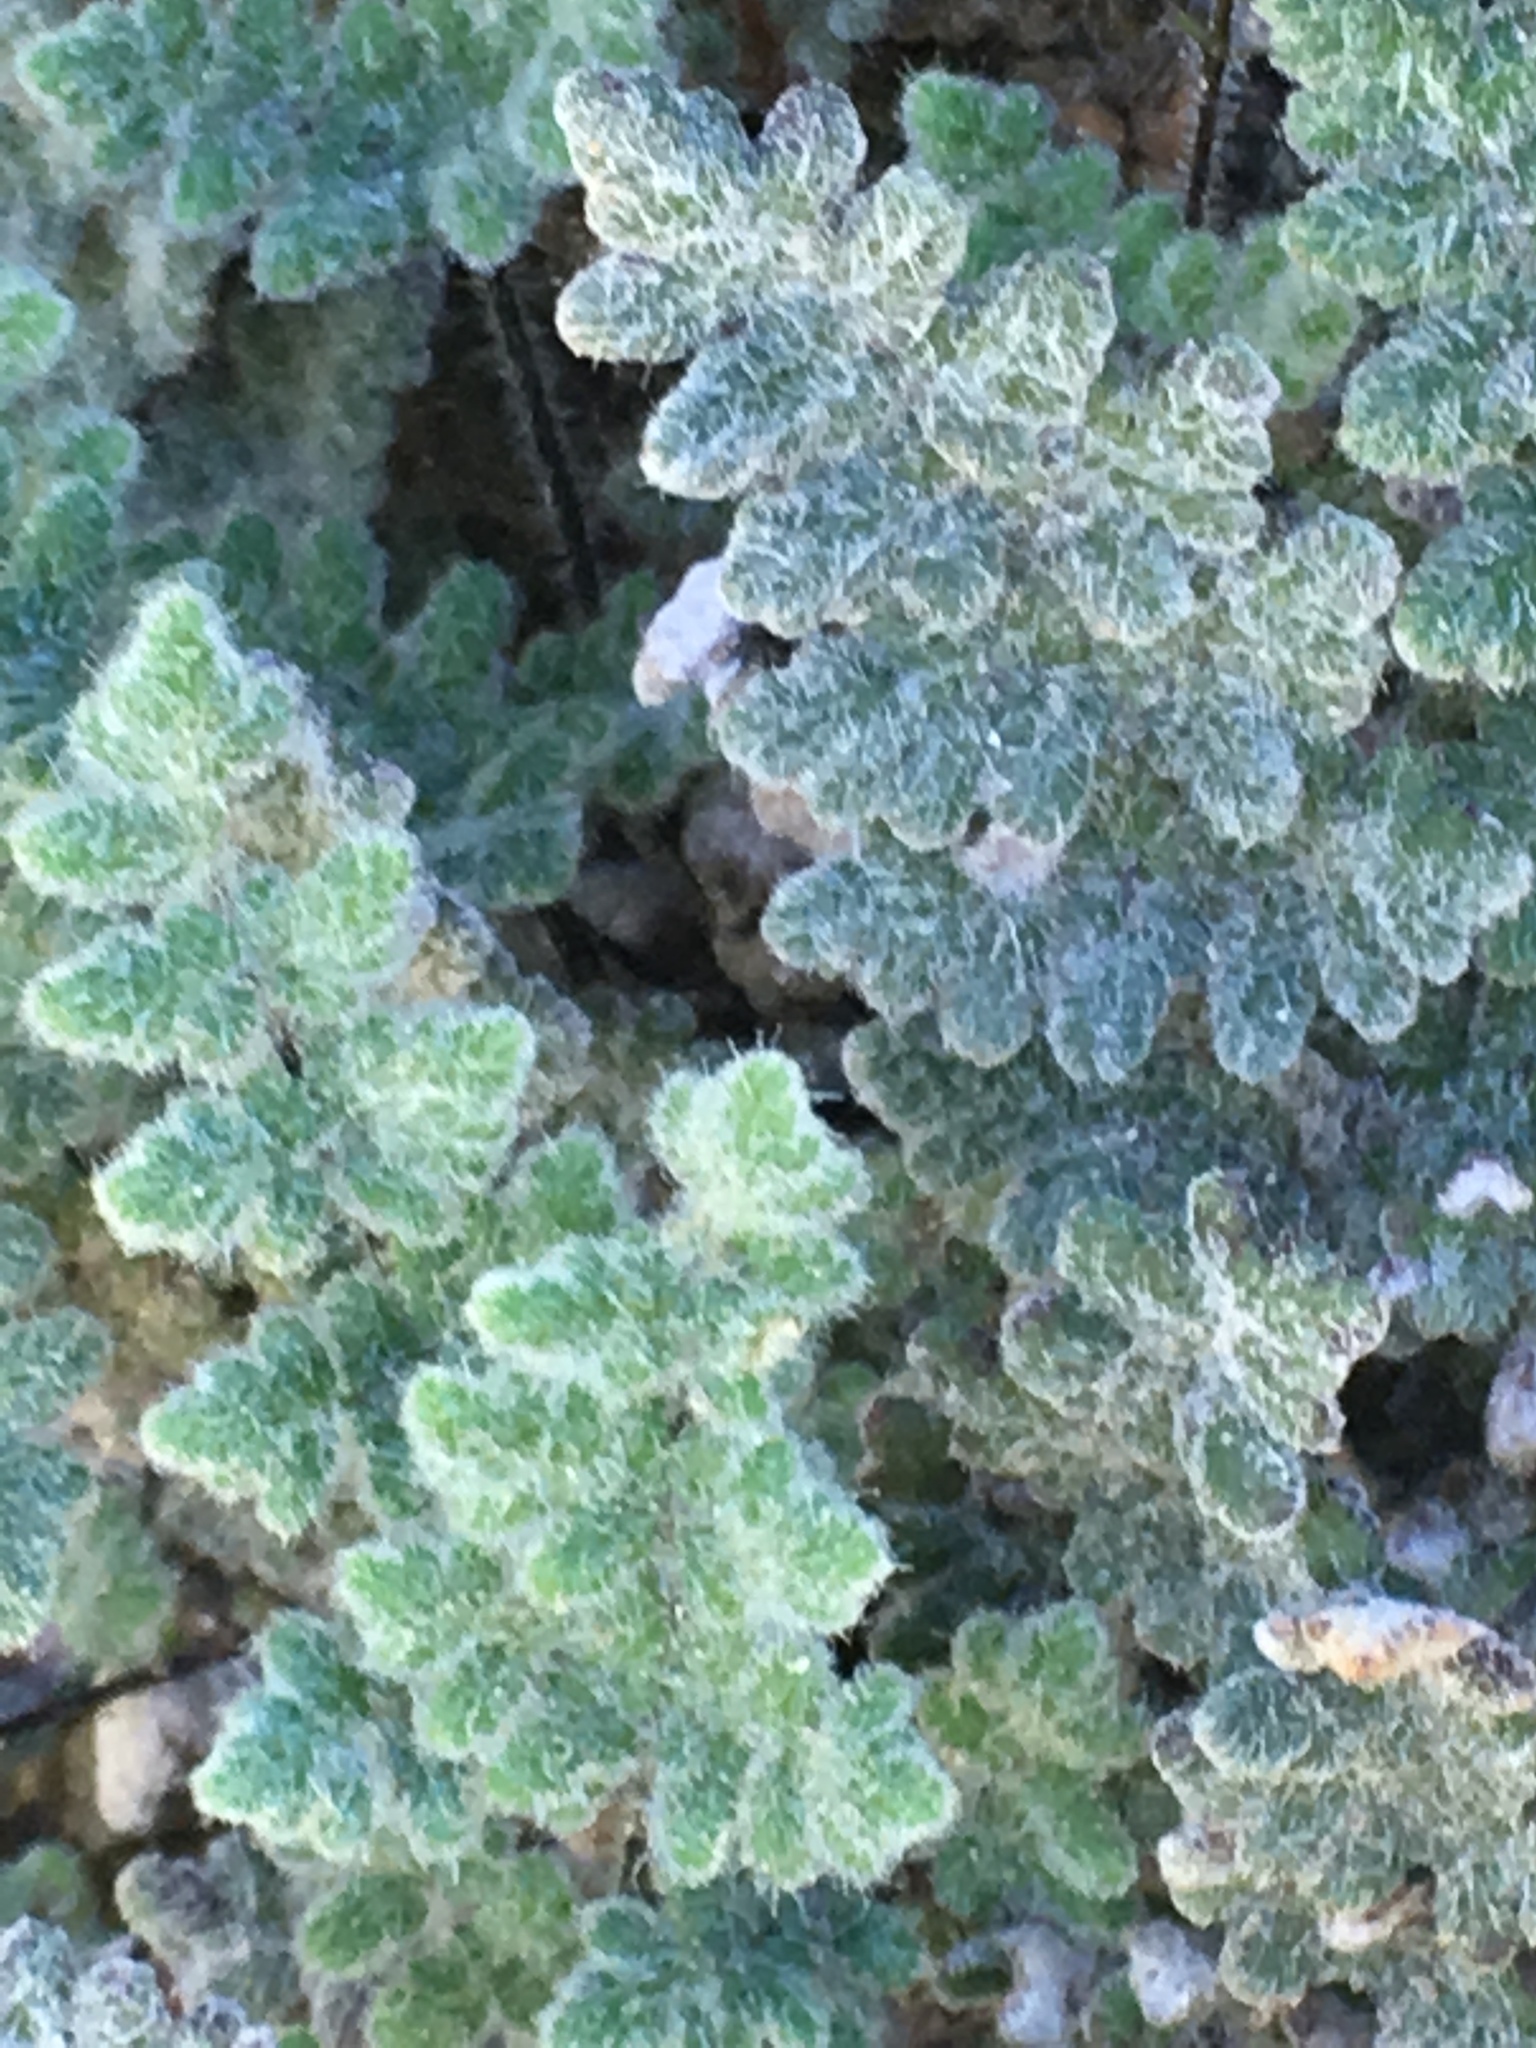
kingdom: Plantae
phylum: Tracheophyta
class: Polypodiopsida
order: Polypodiales
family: Pteridaceae
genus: Myriopteris
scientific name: Myriopteris parryi
